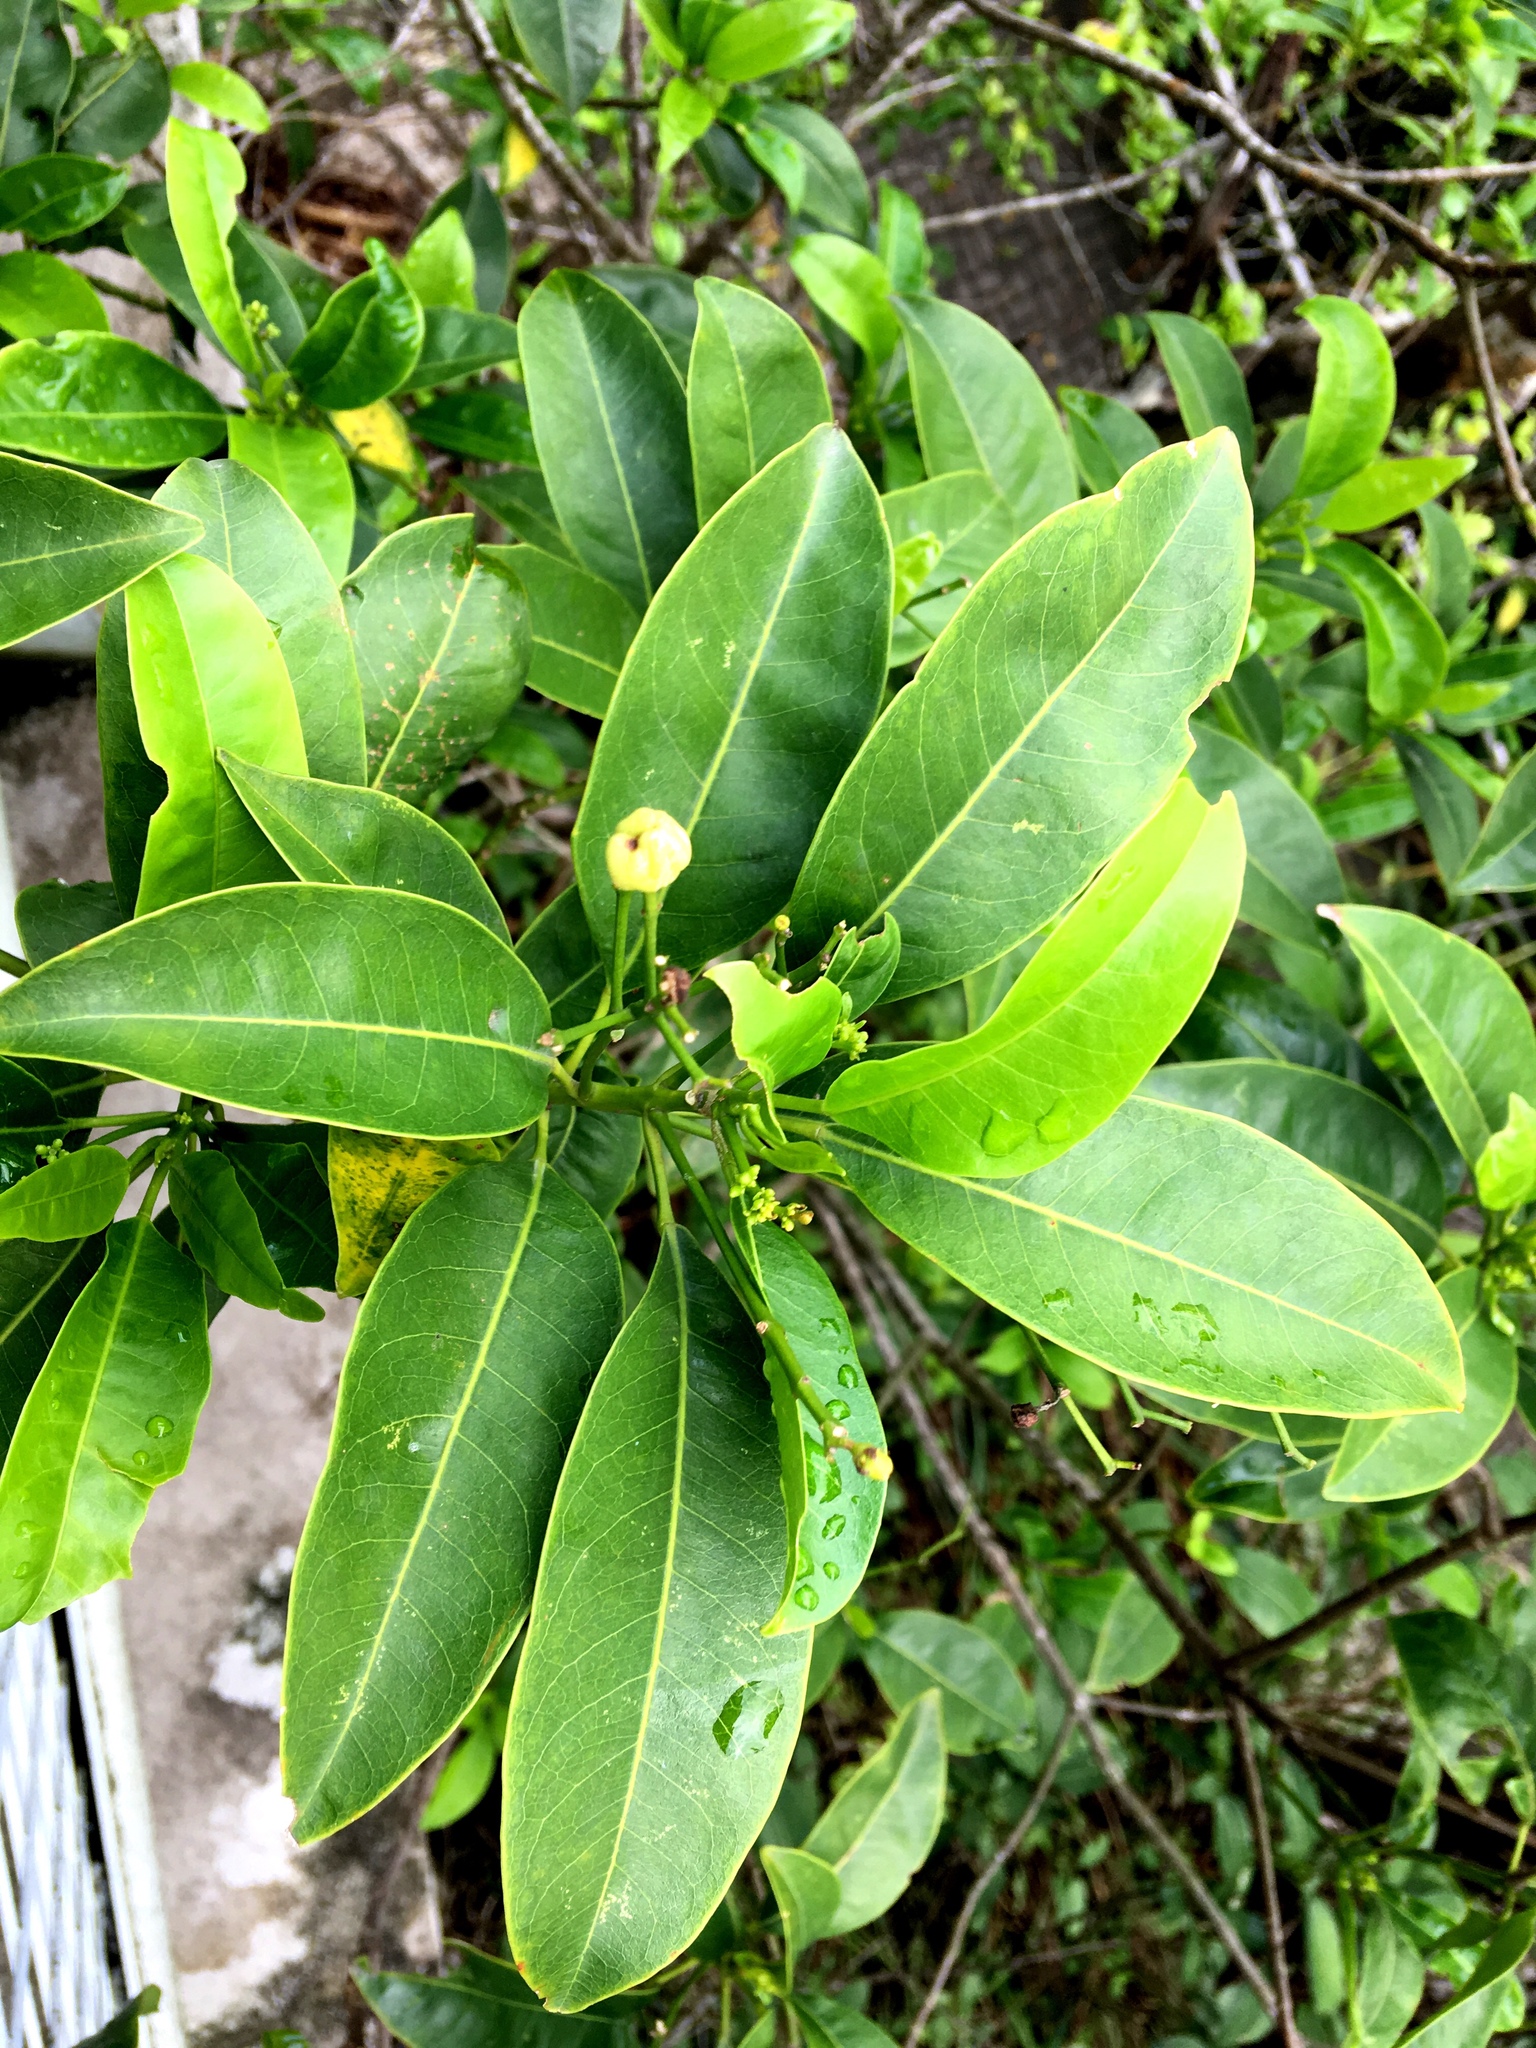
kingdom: Plantae
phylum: Tracheophyta
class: Magnoliopsida
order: Sapindales
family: Rutaceae
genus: Acronychia
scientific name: Acronychia pedunculata
